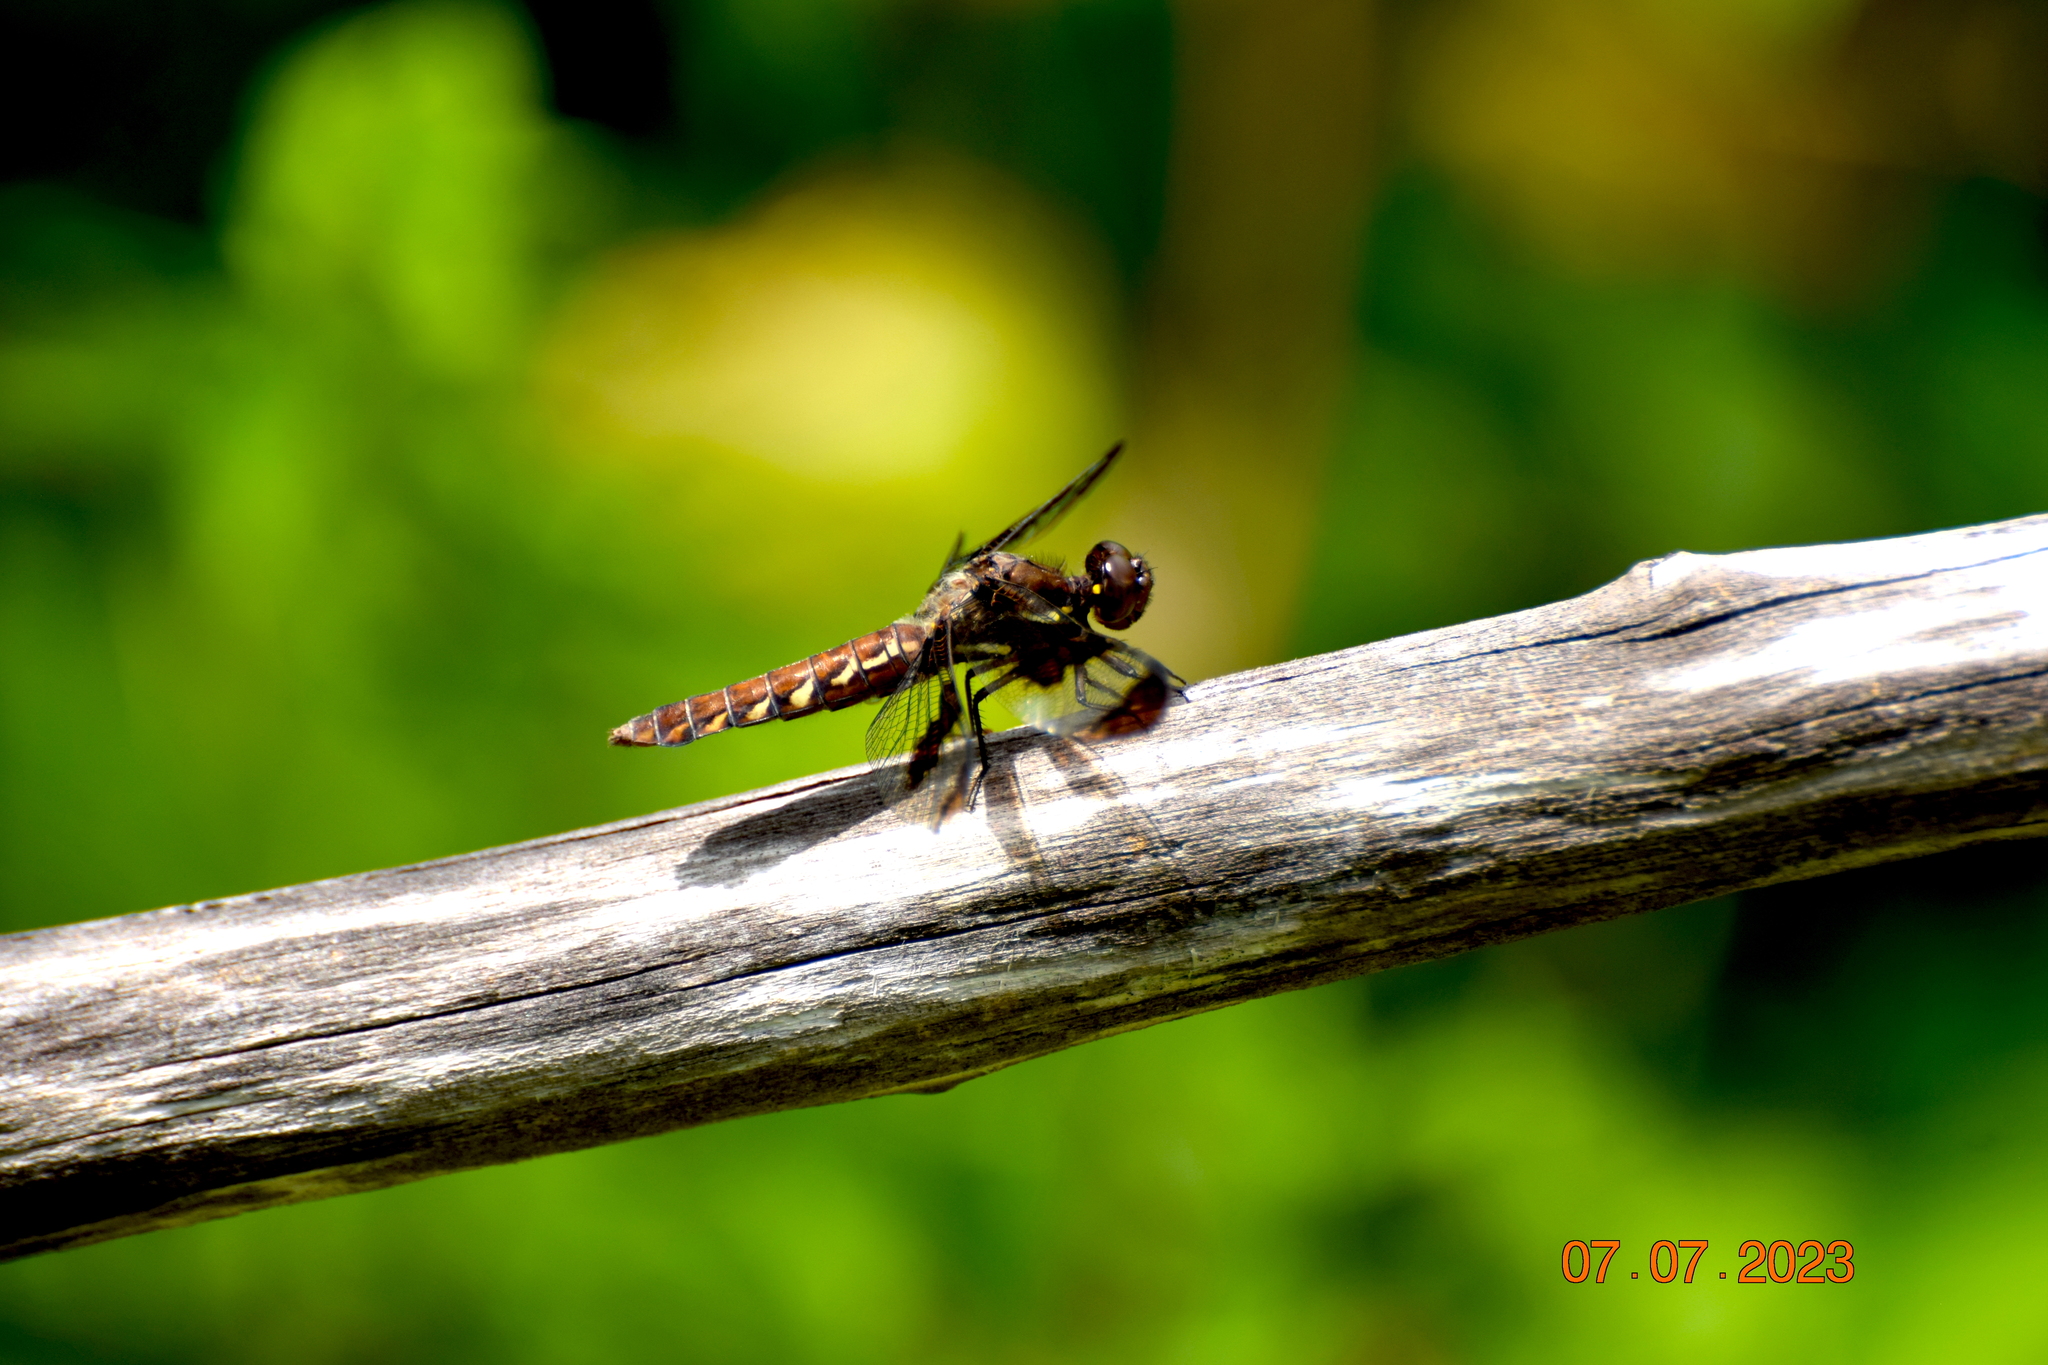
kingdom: Animalia
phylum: Arthropoda
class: Insecta
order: Odonata
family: Libellulidae
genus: Plathemis
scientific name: Plathemis lydia
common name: Common whitetail
